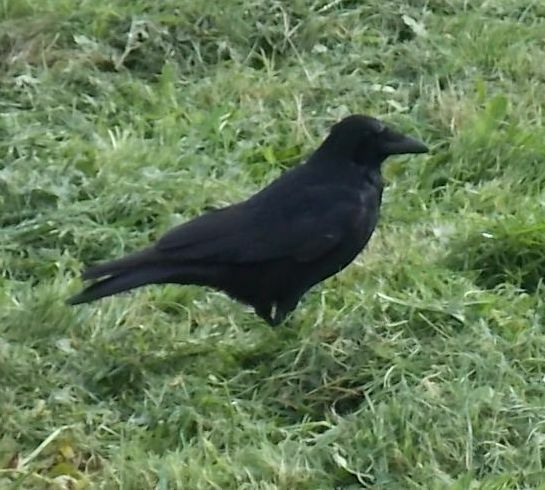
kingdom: Animalia
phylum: Chordata
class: Aves
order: Passeriformes
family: Corvidae
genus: Corvus
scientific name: Corvus corone
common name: Carrion crow
